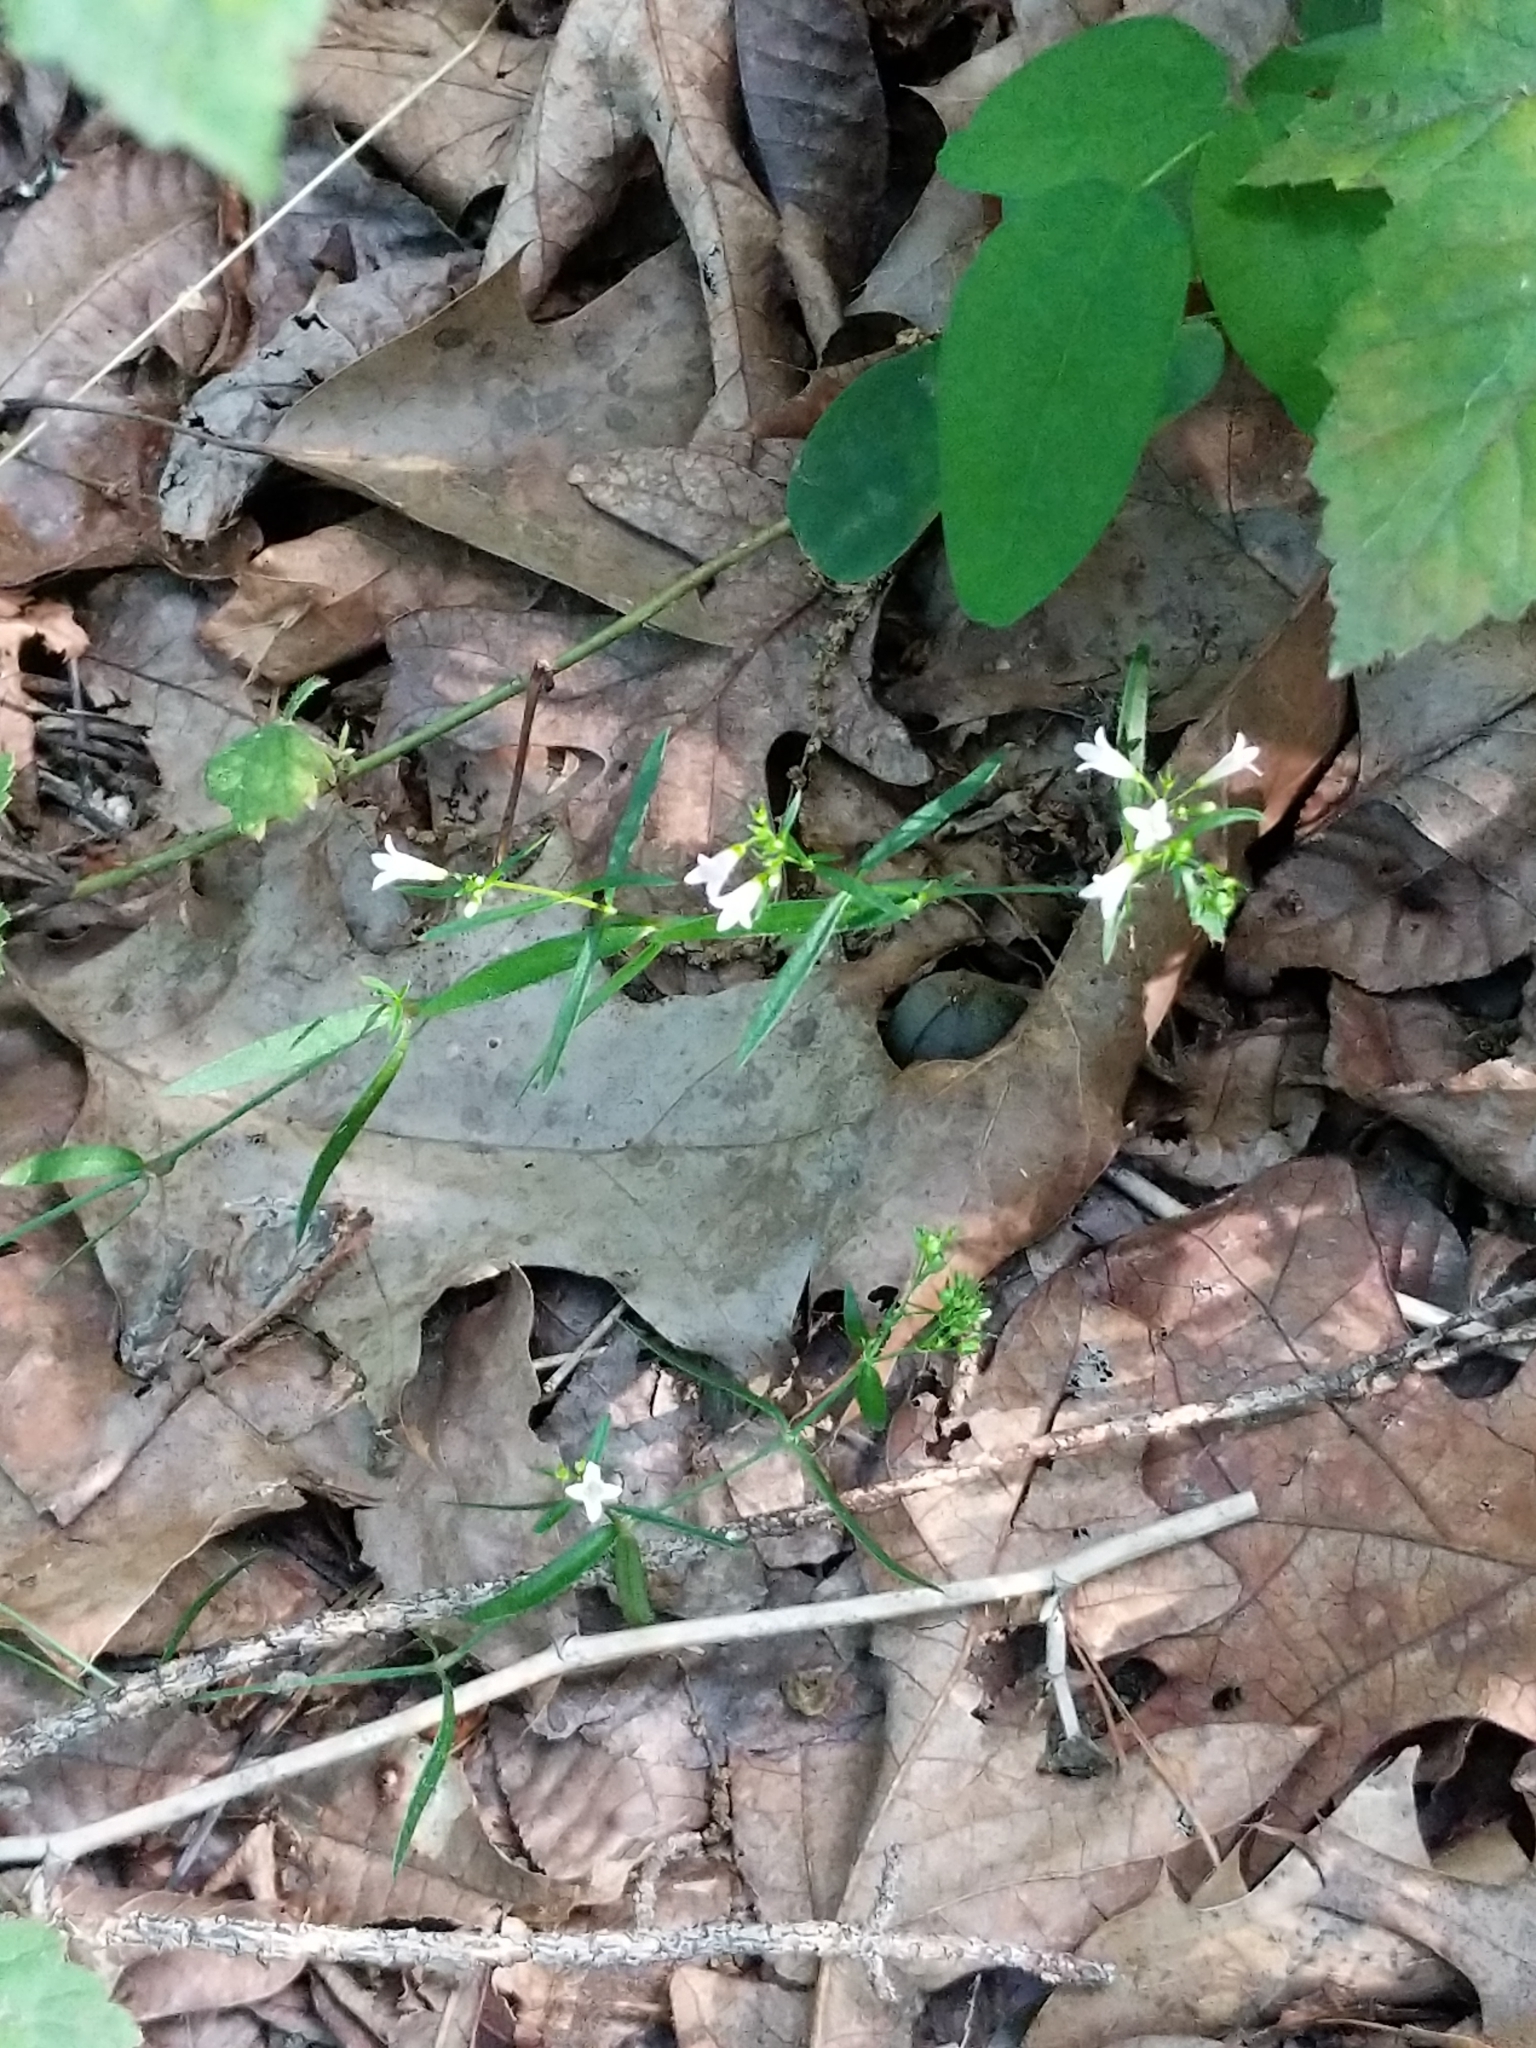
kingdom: Plantae
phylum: Tracheophyta
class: Magnoliopsida
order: Gentianales
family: Rubiaceae
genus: Houstonia
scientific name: Houstonia longifolia
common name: Long-leaved bluets
